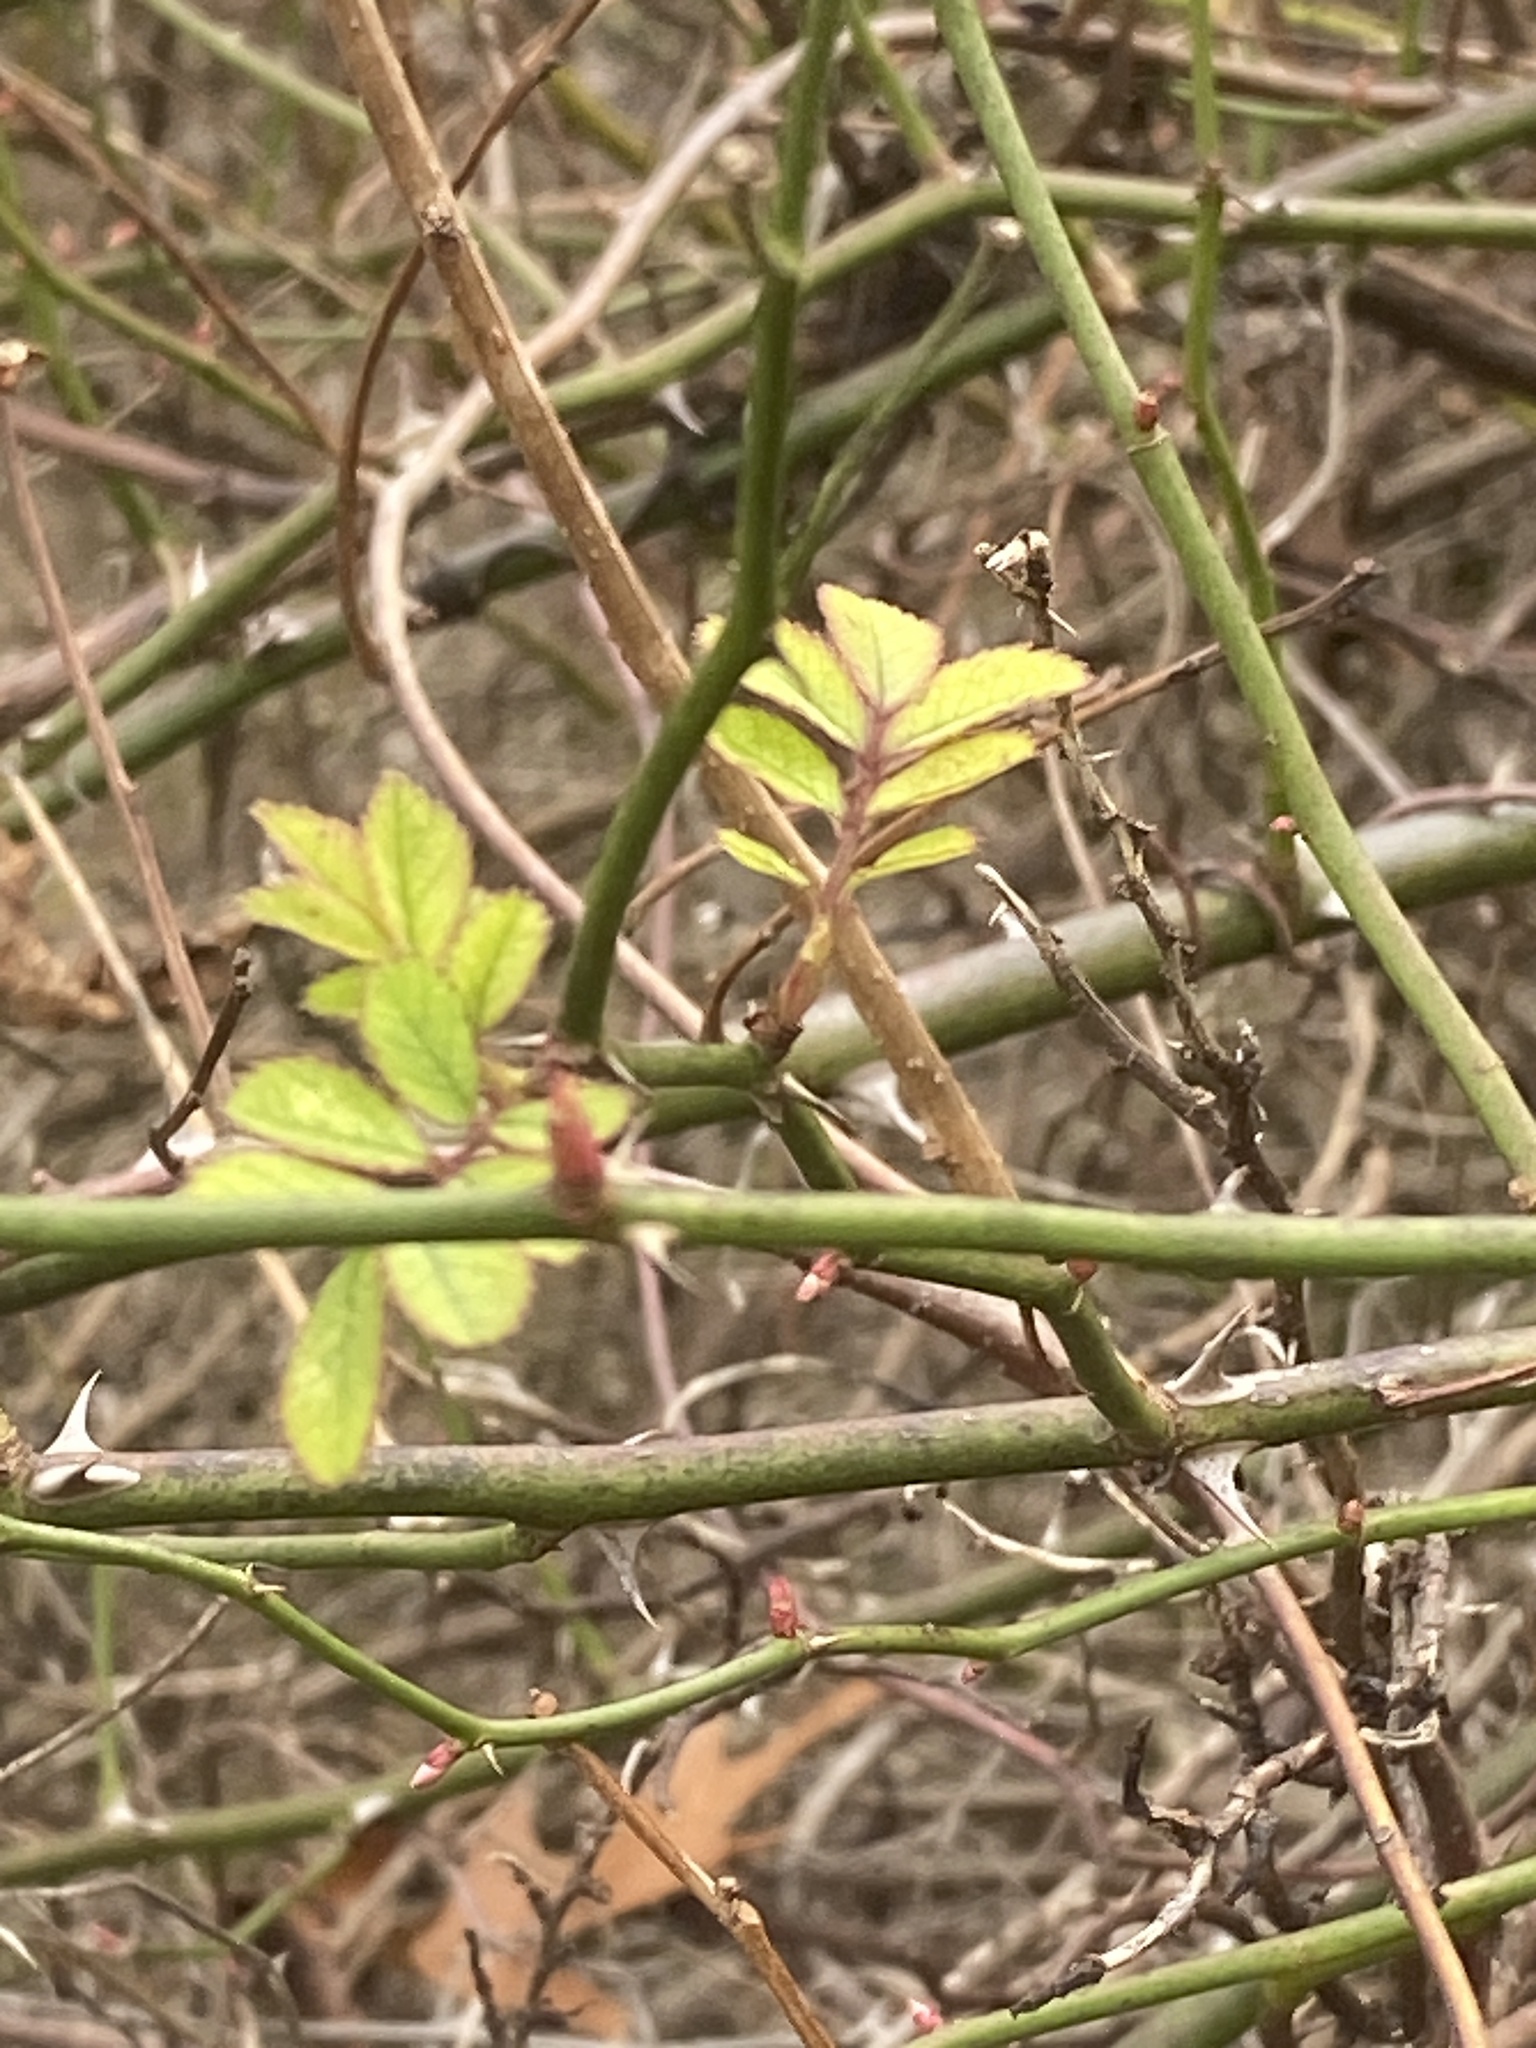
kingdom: Plantae
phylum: Tracheophyta
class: Magnoliopsida
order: Rosales
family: Rosaceae
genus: Rosa
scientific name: Rosa multiflora
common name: Multiflora rose
